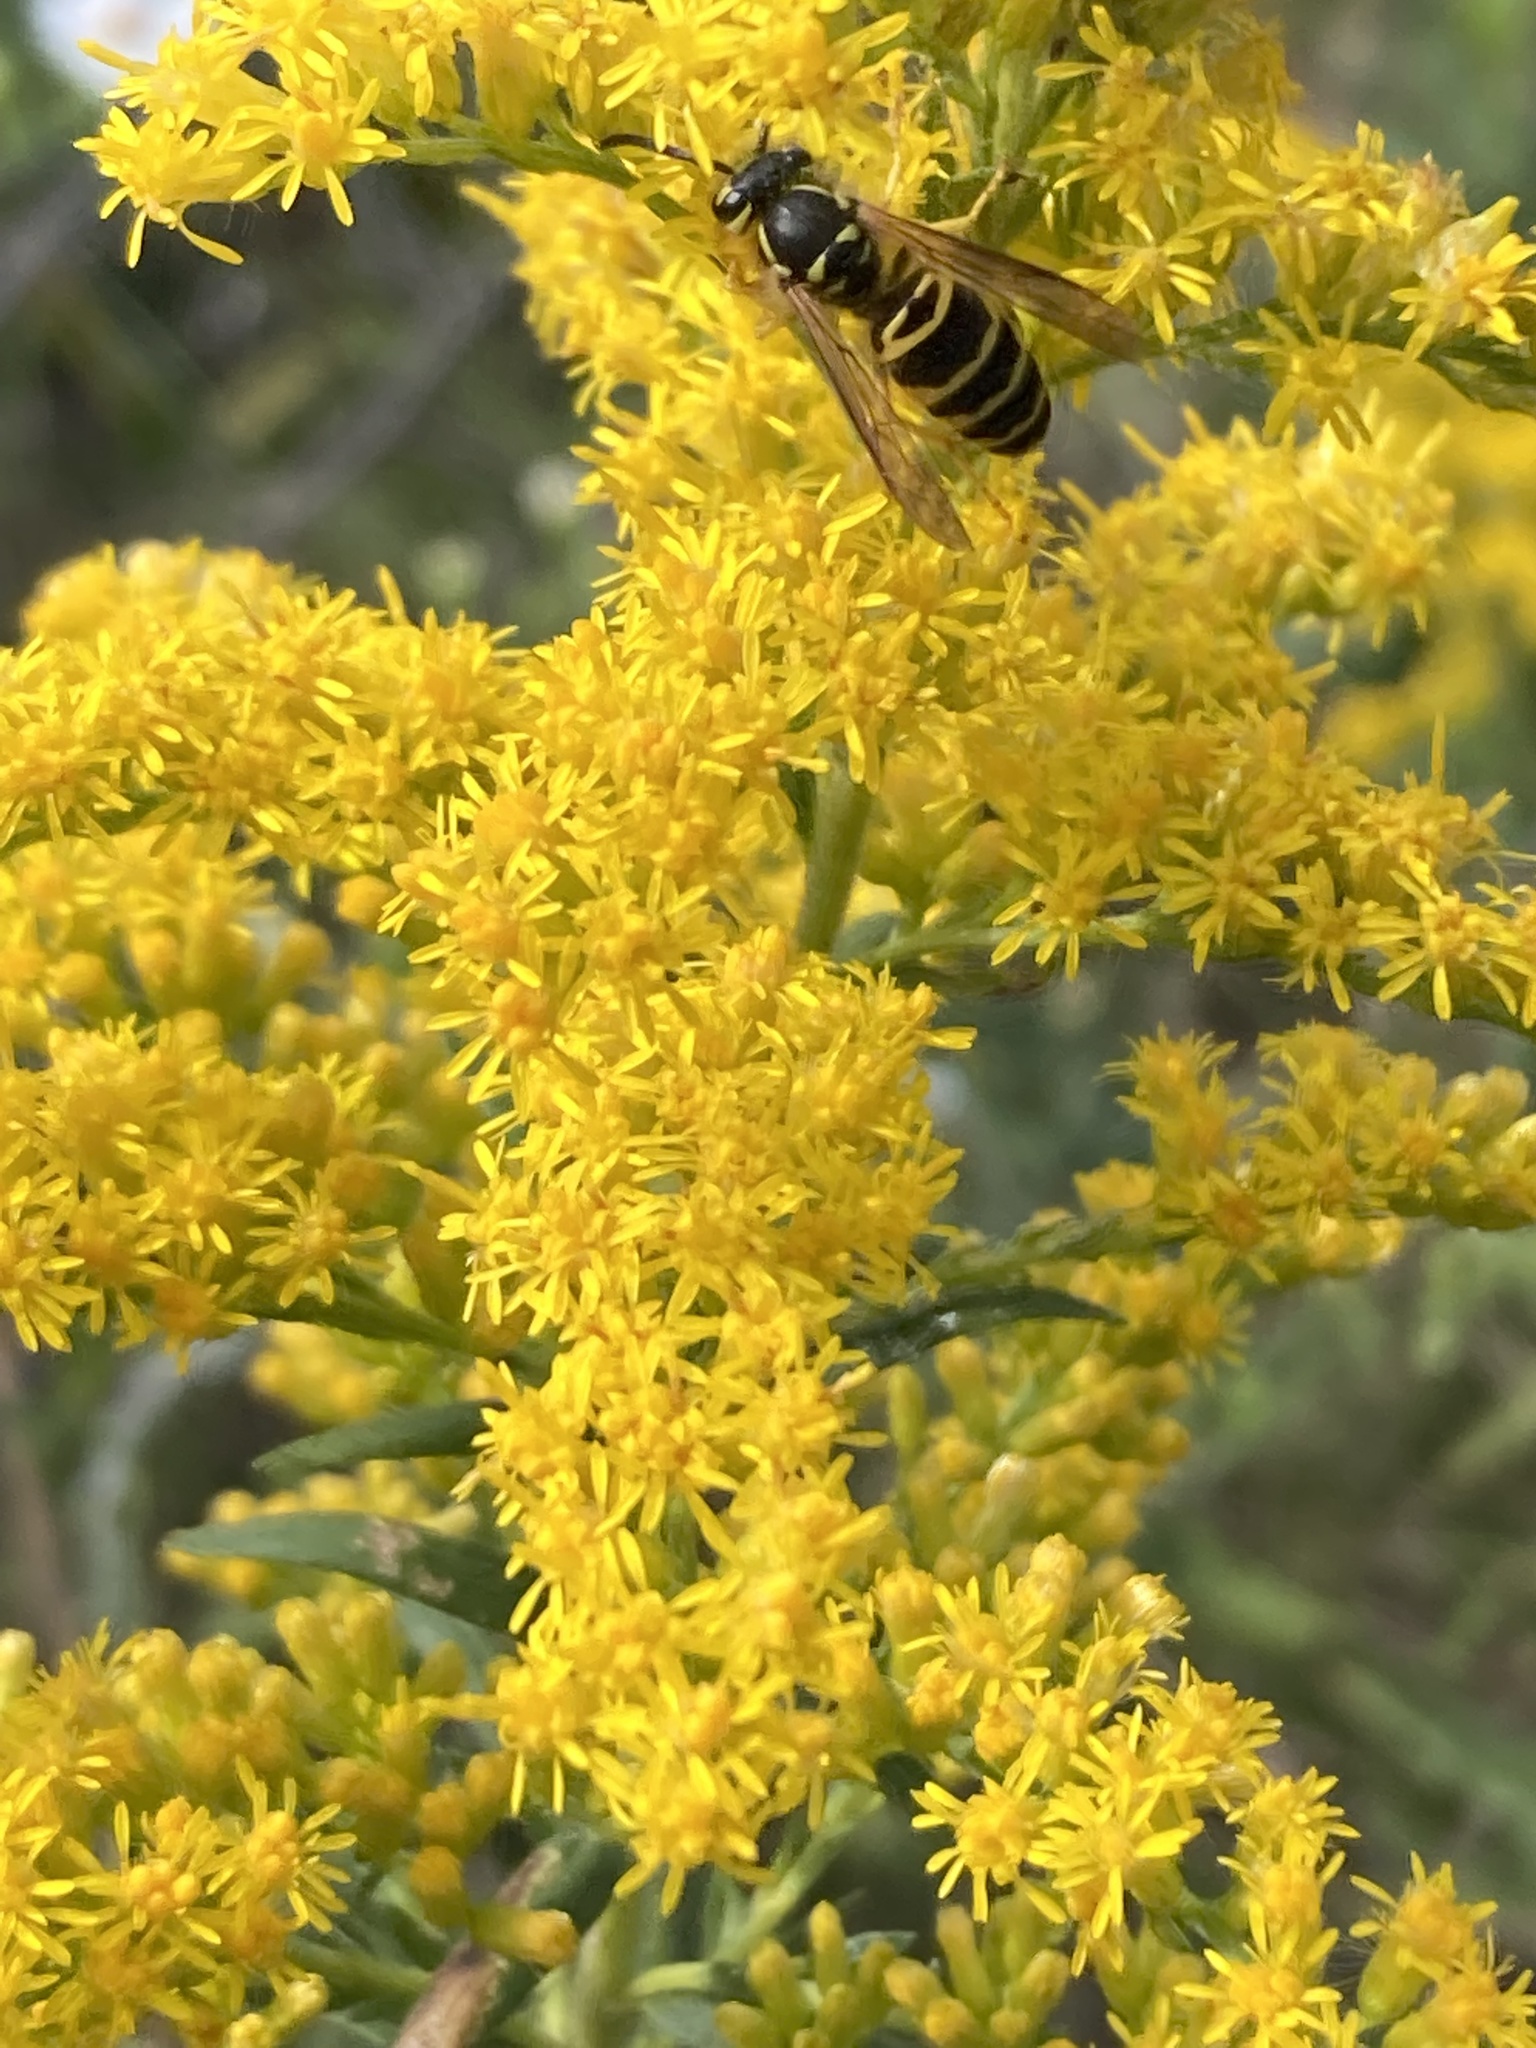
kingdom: Animalia
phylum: Arthropoda
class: Insecta
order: Hymenoptera
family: Vespidae
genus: Vespula
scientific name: Vespula maculifrons
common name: Eastern yellowjacket
